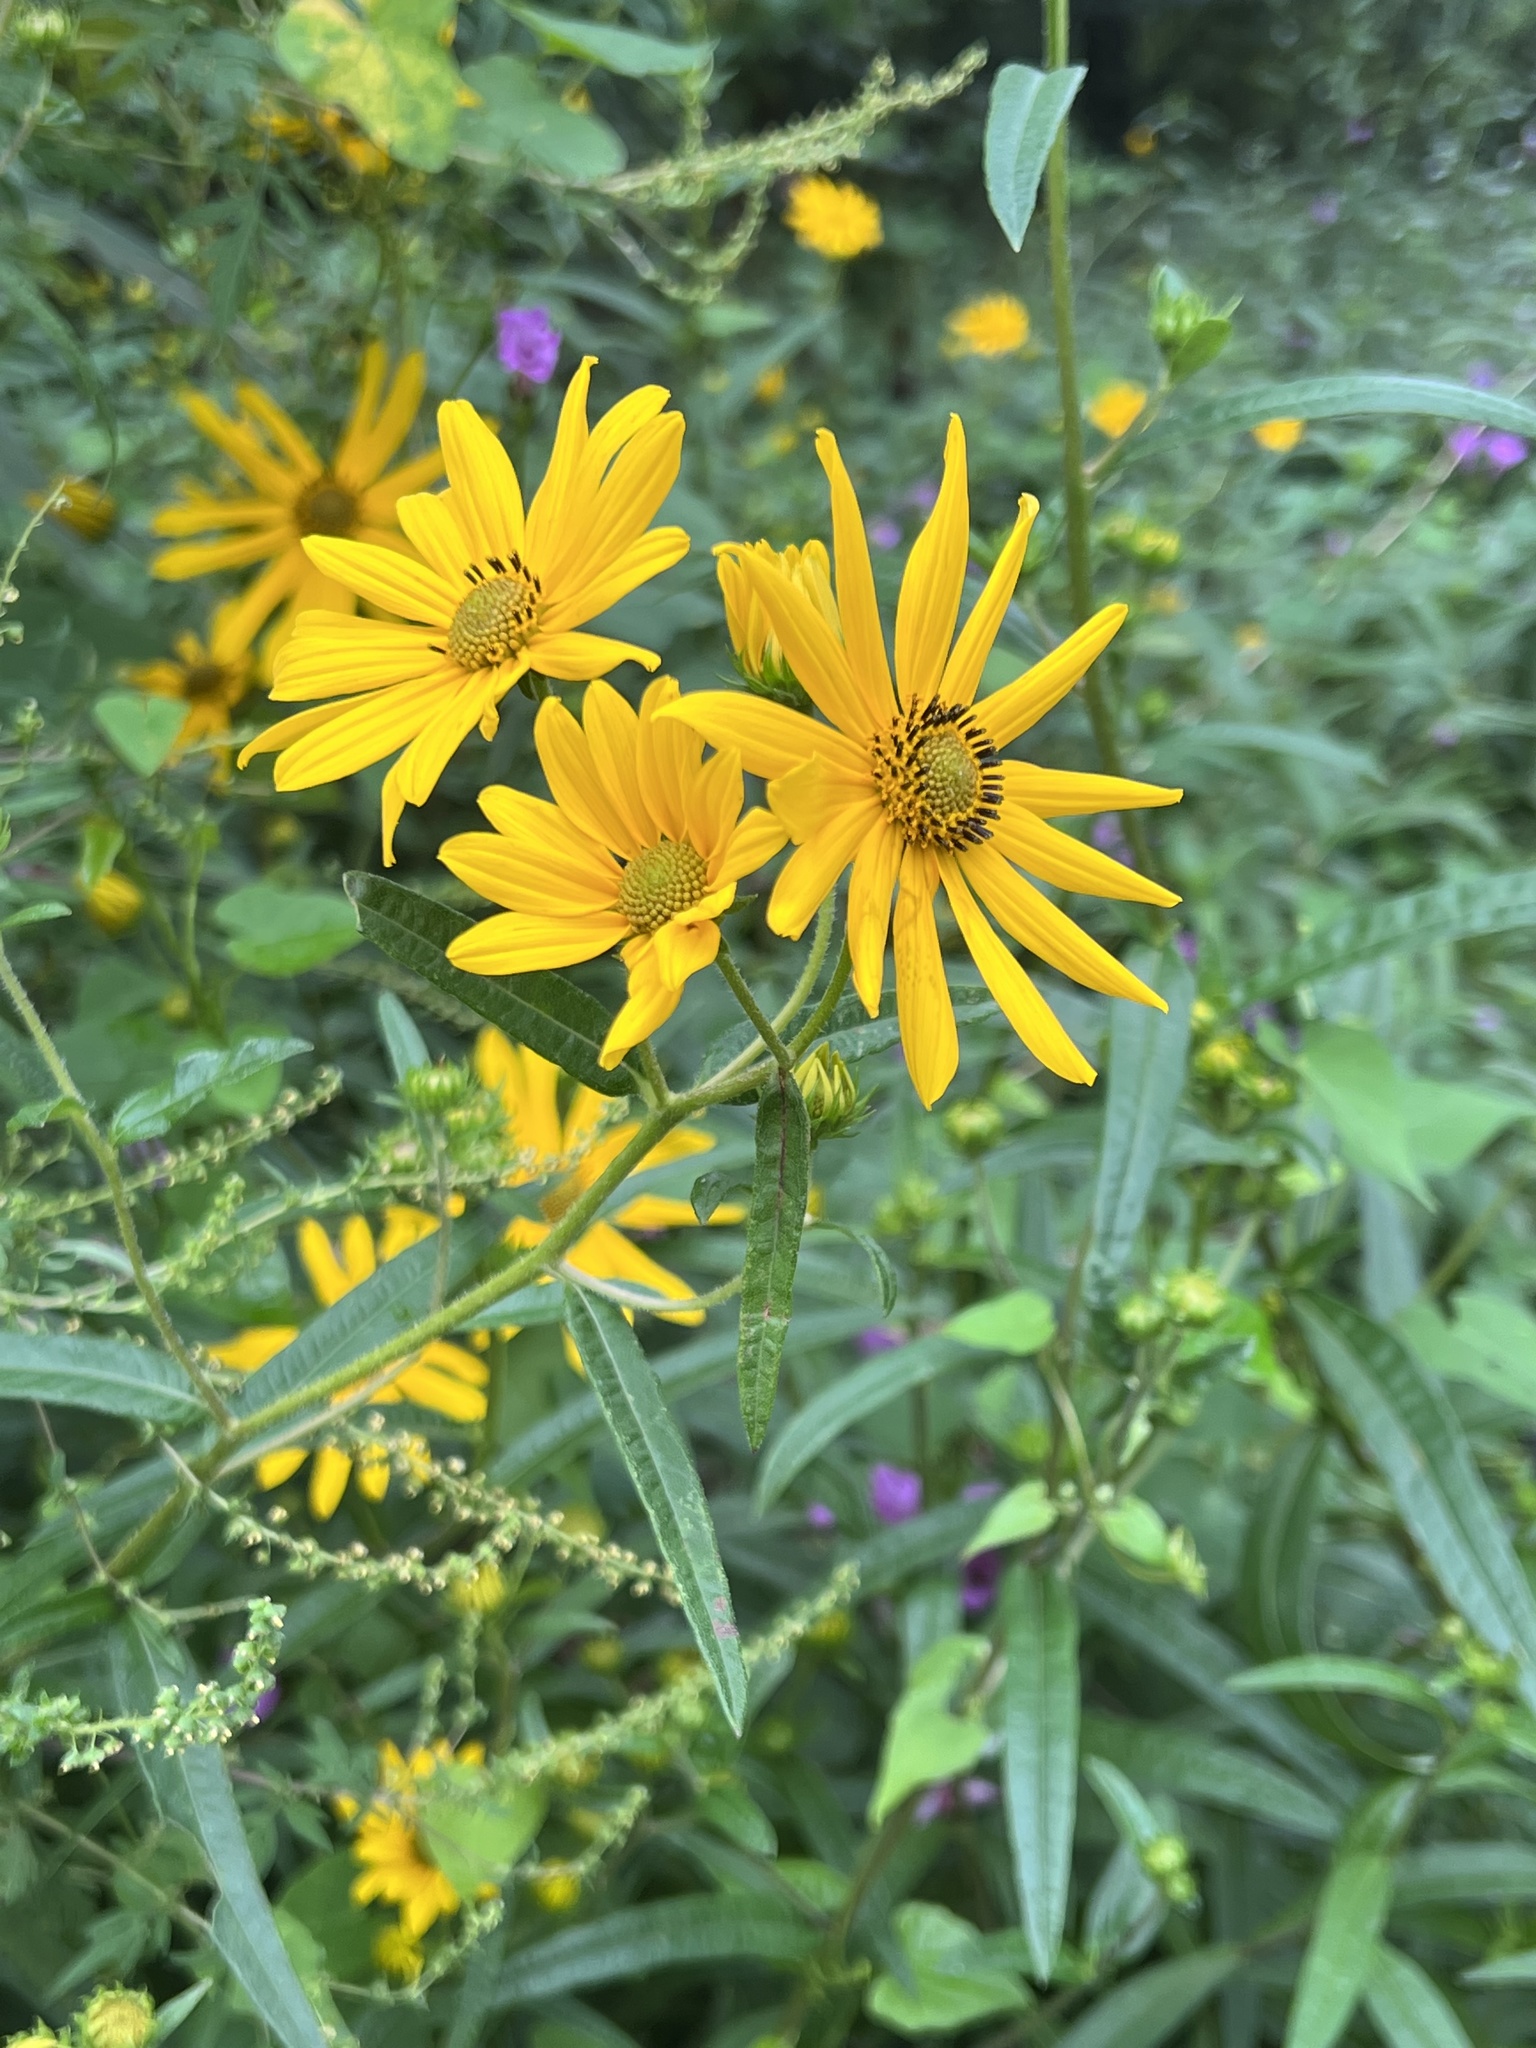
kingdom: Plantae
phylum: Tracheophyta
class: Magnoliopsida
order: Asterales
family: Asteraceae
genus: Helianthus
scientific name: Helianthus angustifolius
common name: Swamp sunflower
